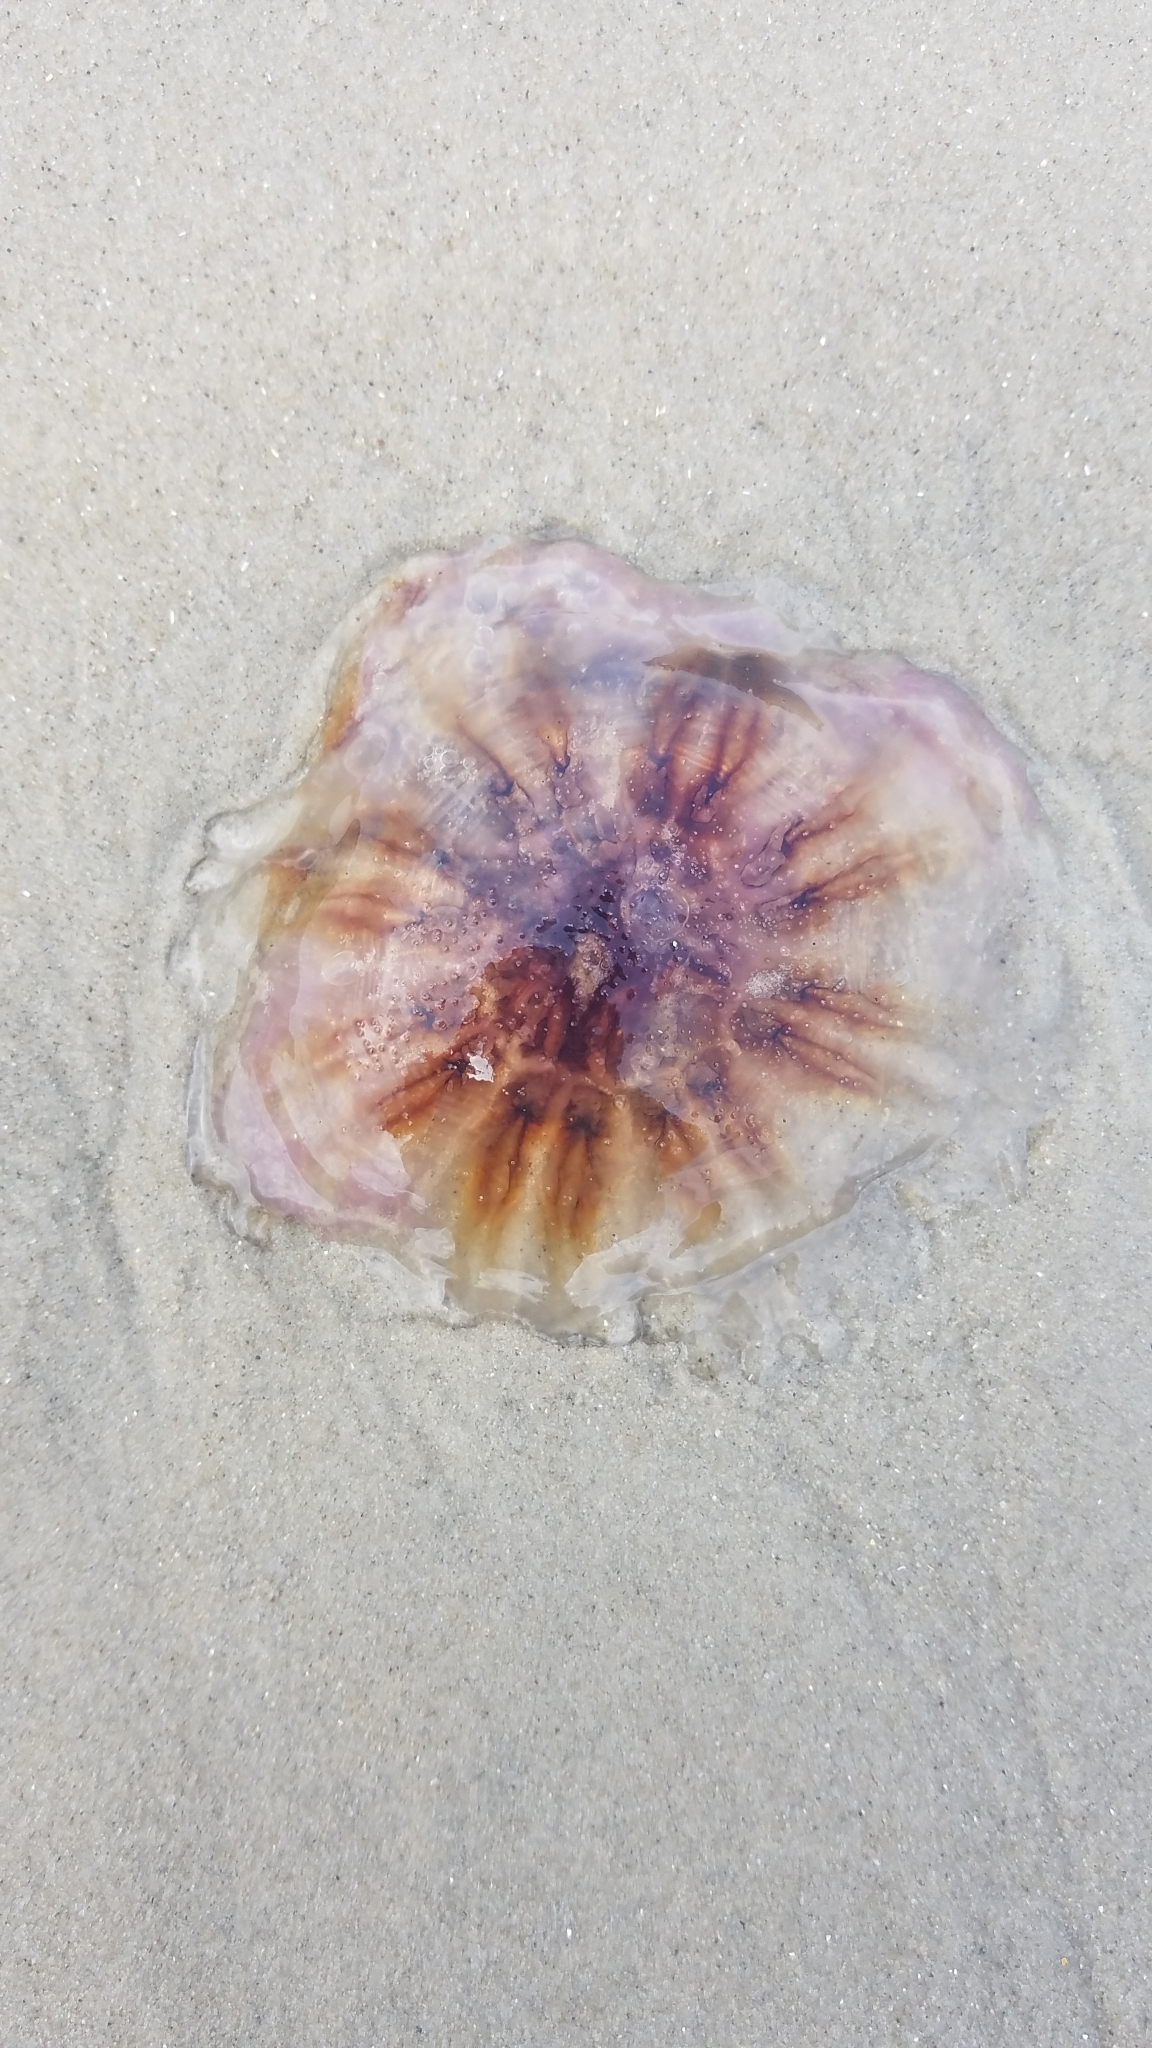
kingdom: Animalia
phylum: Cnidaria
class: Scyphozoa
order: Semaeostomeae
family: Cyaneidae
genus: Cyanea
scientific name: Cyanea versicolor
